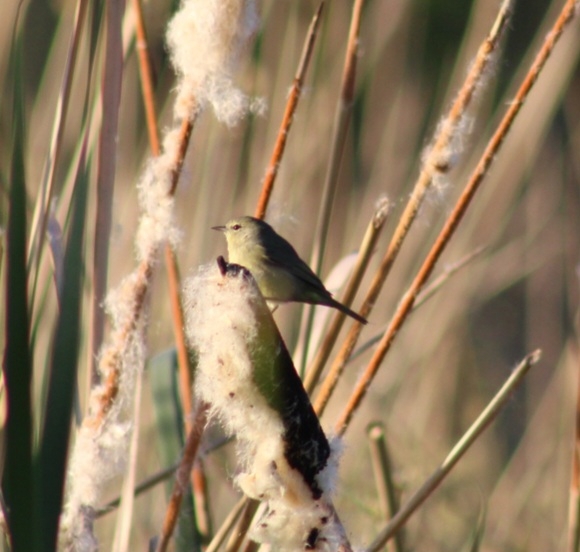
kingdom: Animalia
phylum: Chordata
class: Aves
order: Passeriformes
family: Parulidae
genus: Leiothlypis
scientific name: Leiothlypis celata
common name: Orange-crowned warbler
